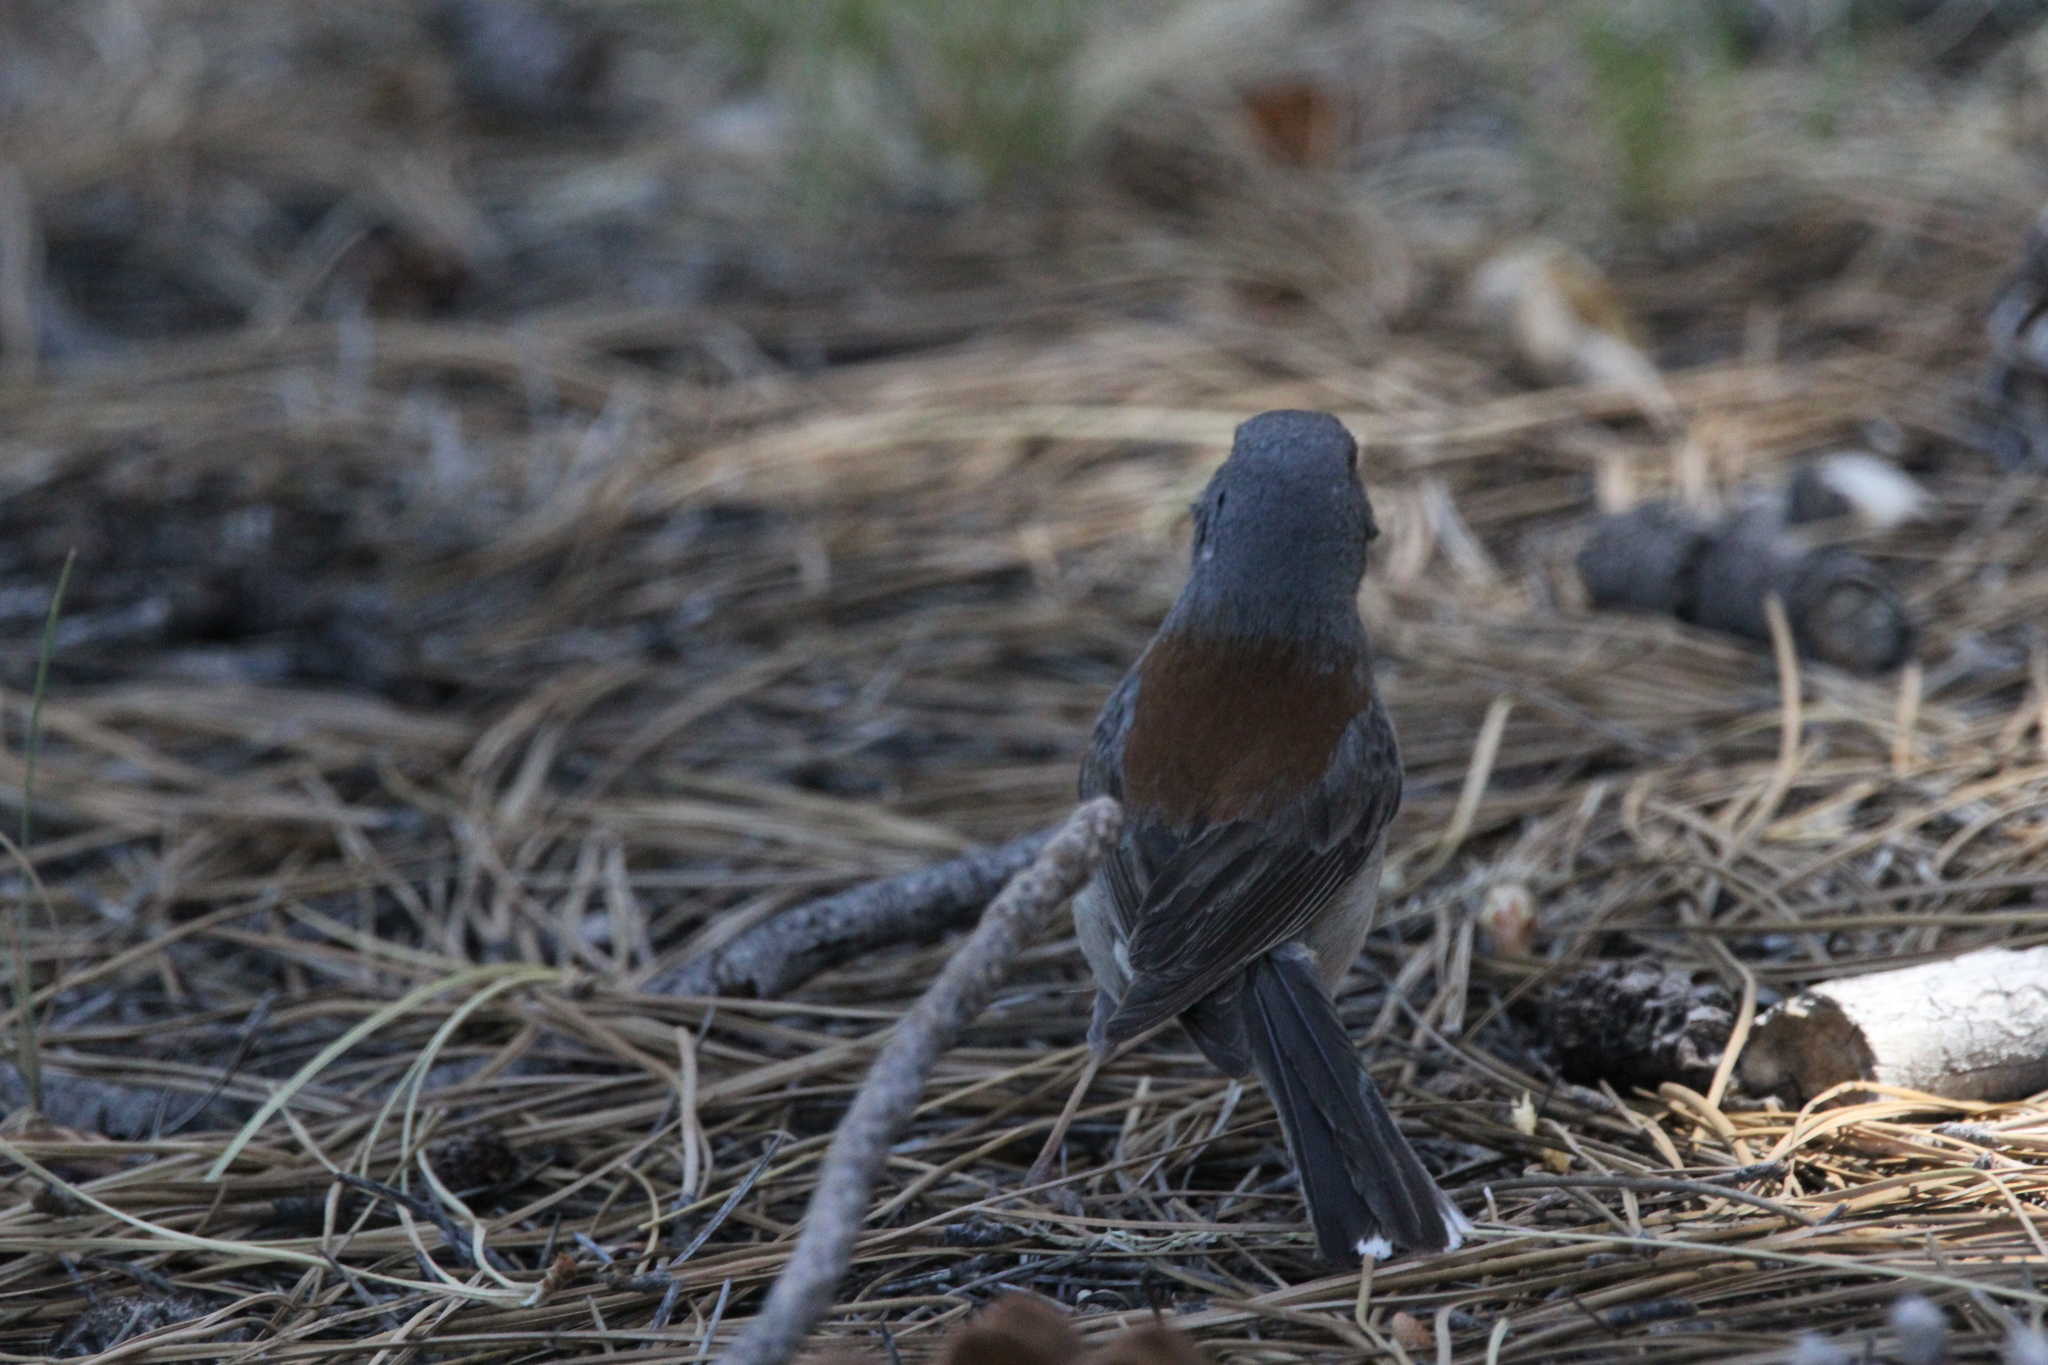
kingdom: Animalia
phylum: Chordata
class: Aves
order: Passeriformes
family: Passerellidae
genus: Junco
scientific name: Junco hyemalis
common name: Dark-eyed junco
